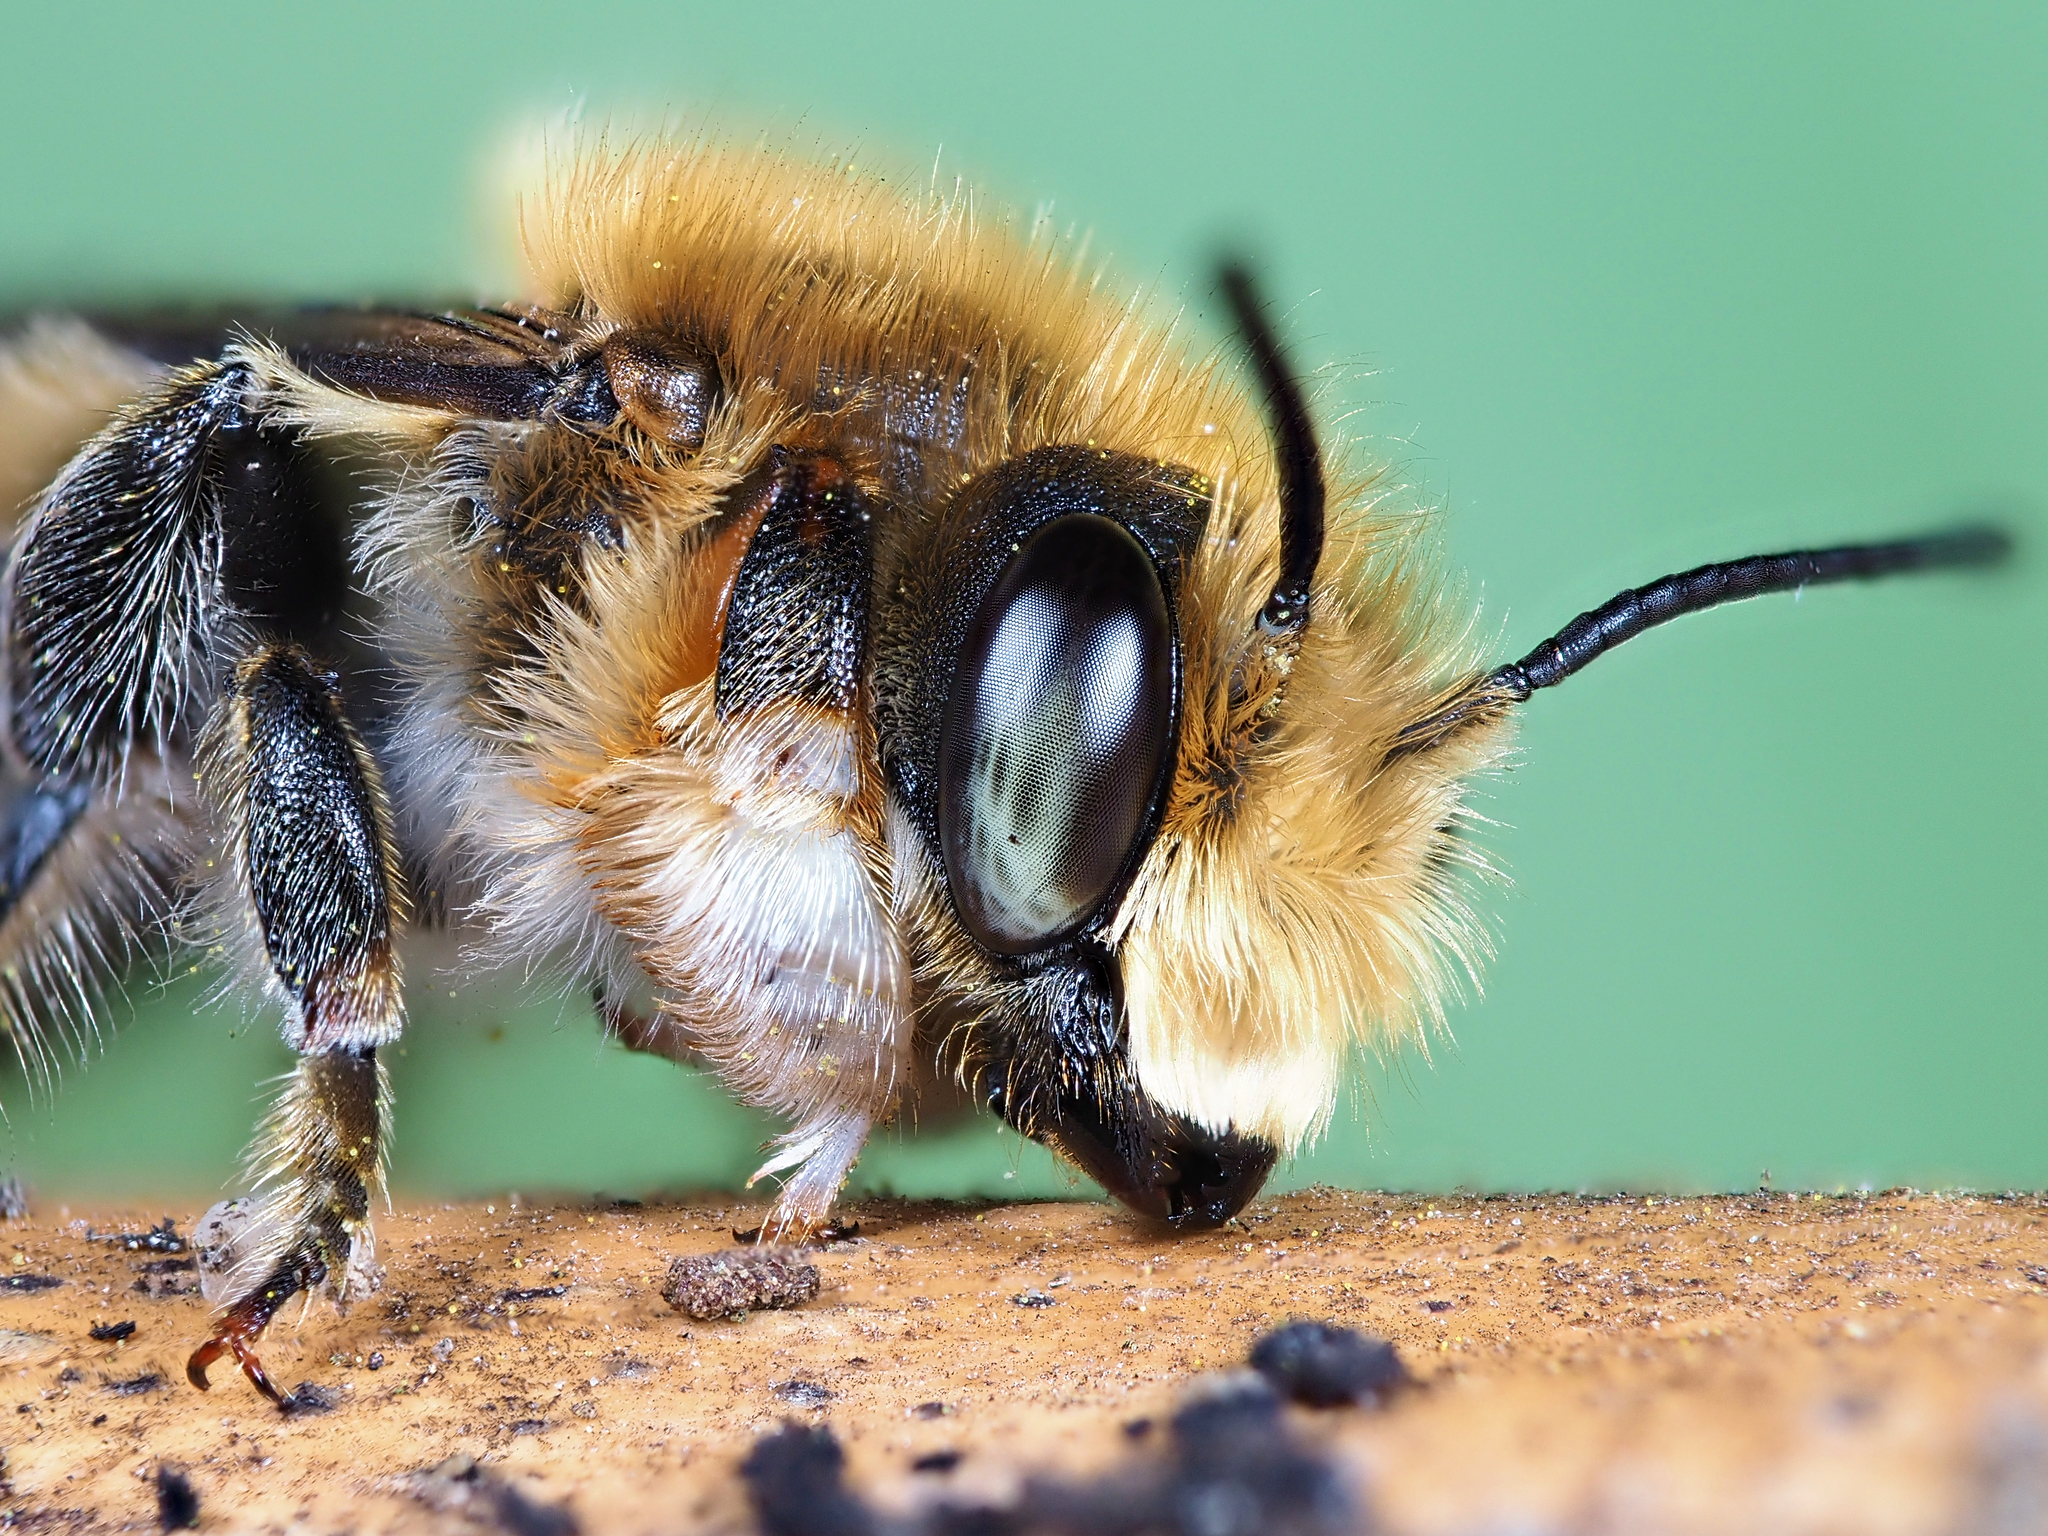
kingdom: Animalia
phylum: Arthropoda
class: Insecta
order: Hymenoptera
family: Megachilidae
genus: Megachile
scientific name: Megachile willughbiella
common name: Willughby's leafcutter bee
